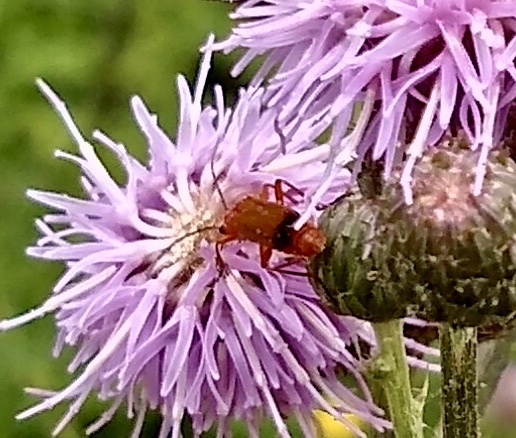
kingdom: Animalia
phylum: Arthropoda
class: Insecta
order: Coleoptera
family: Cantharidae
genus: Rhagonycha
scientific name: Rhagonycha fulva
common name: Common red soldier beetle
